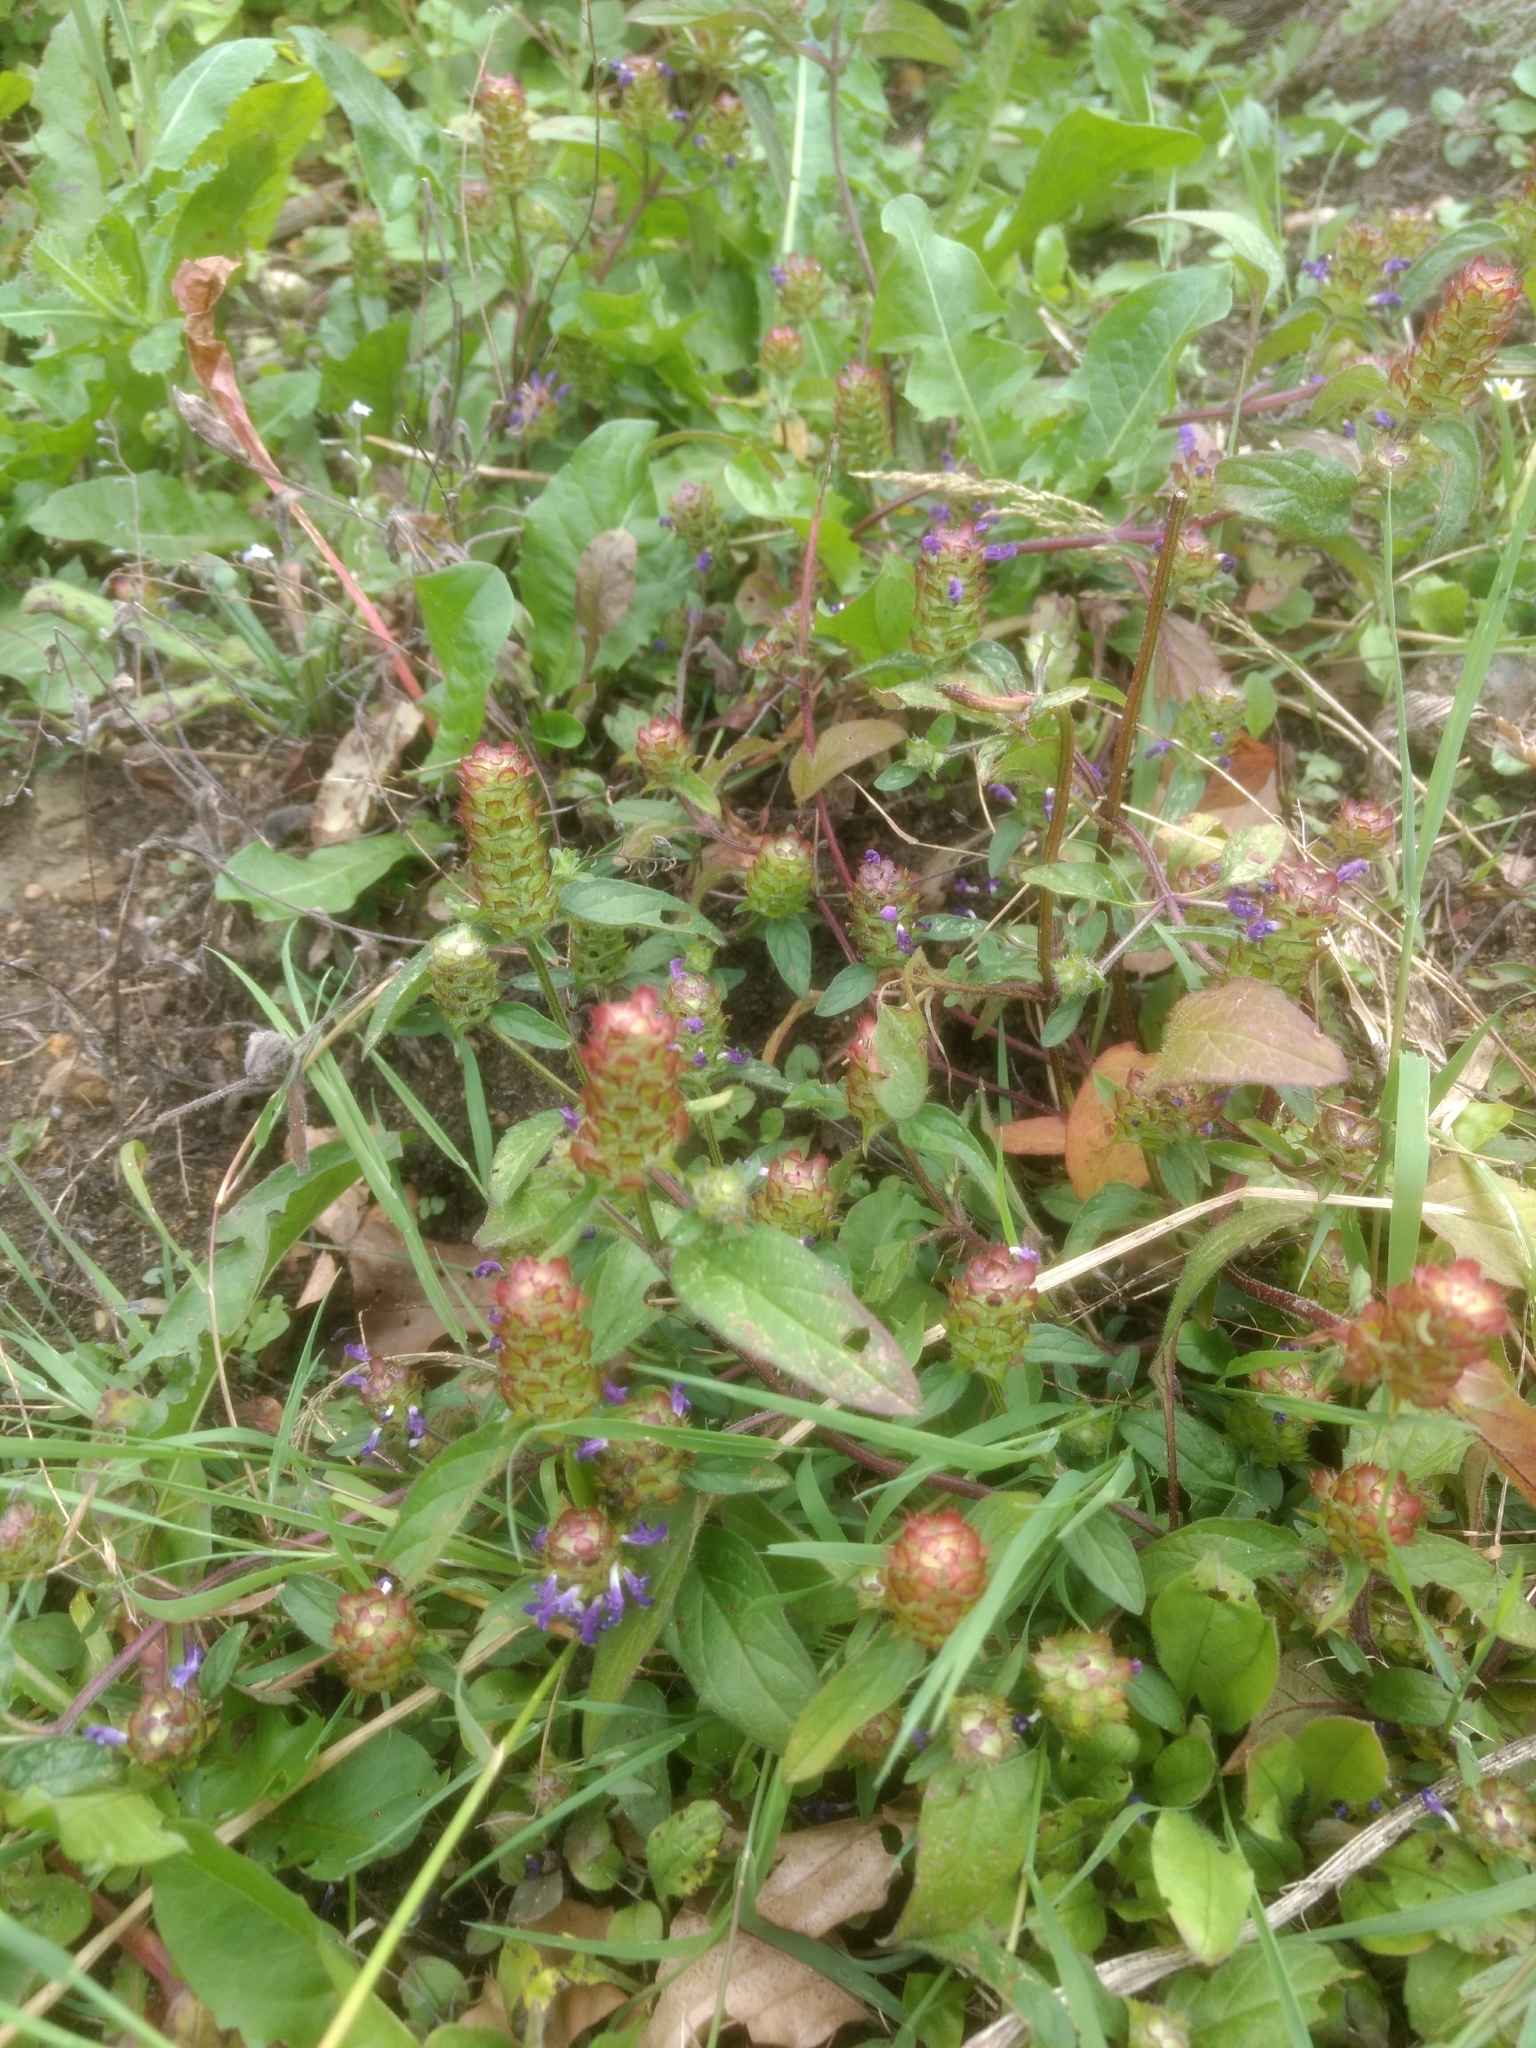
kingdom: Plantae
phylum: Tracheophyta
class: Magnoliopsida
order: Lamiales
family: Lamiaceae
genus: Prunella
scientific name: Prunella vulgaris
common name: Heal-all
